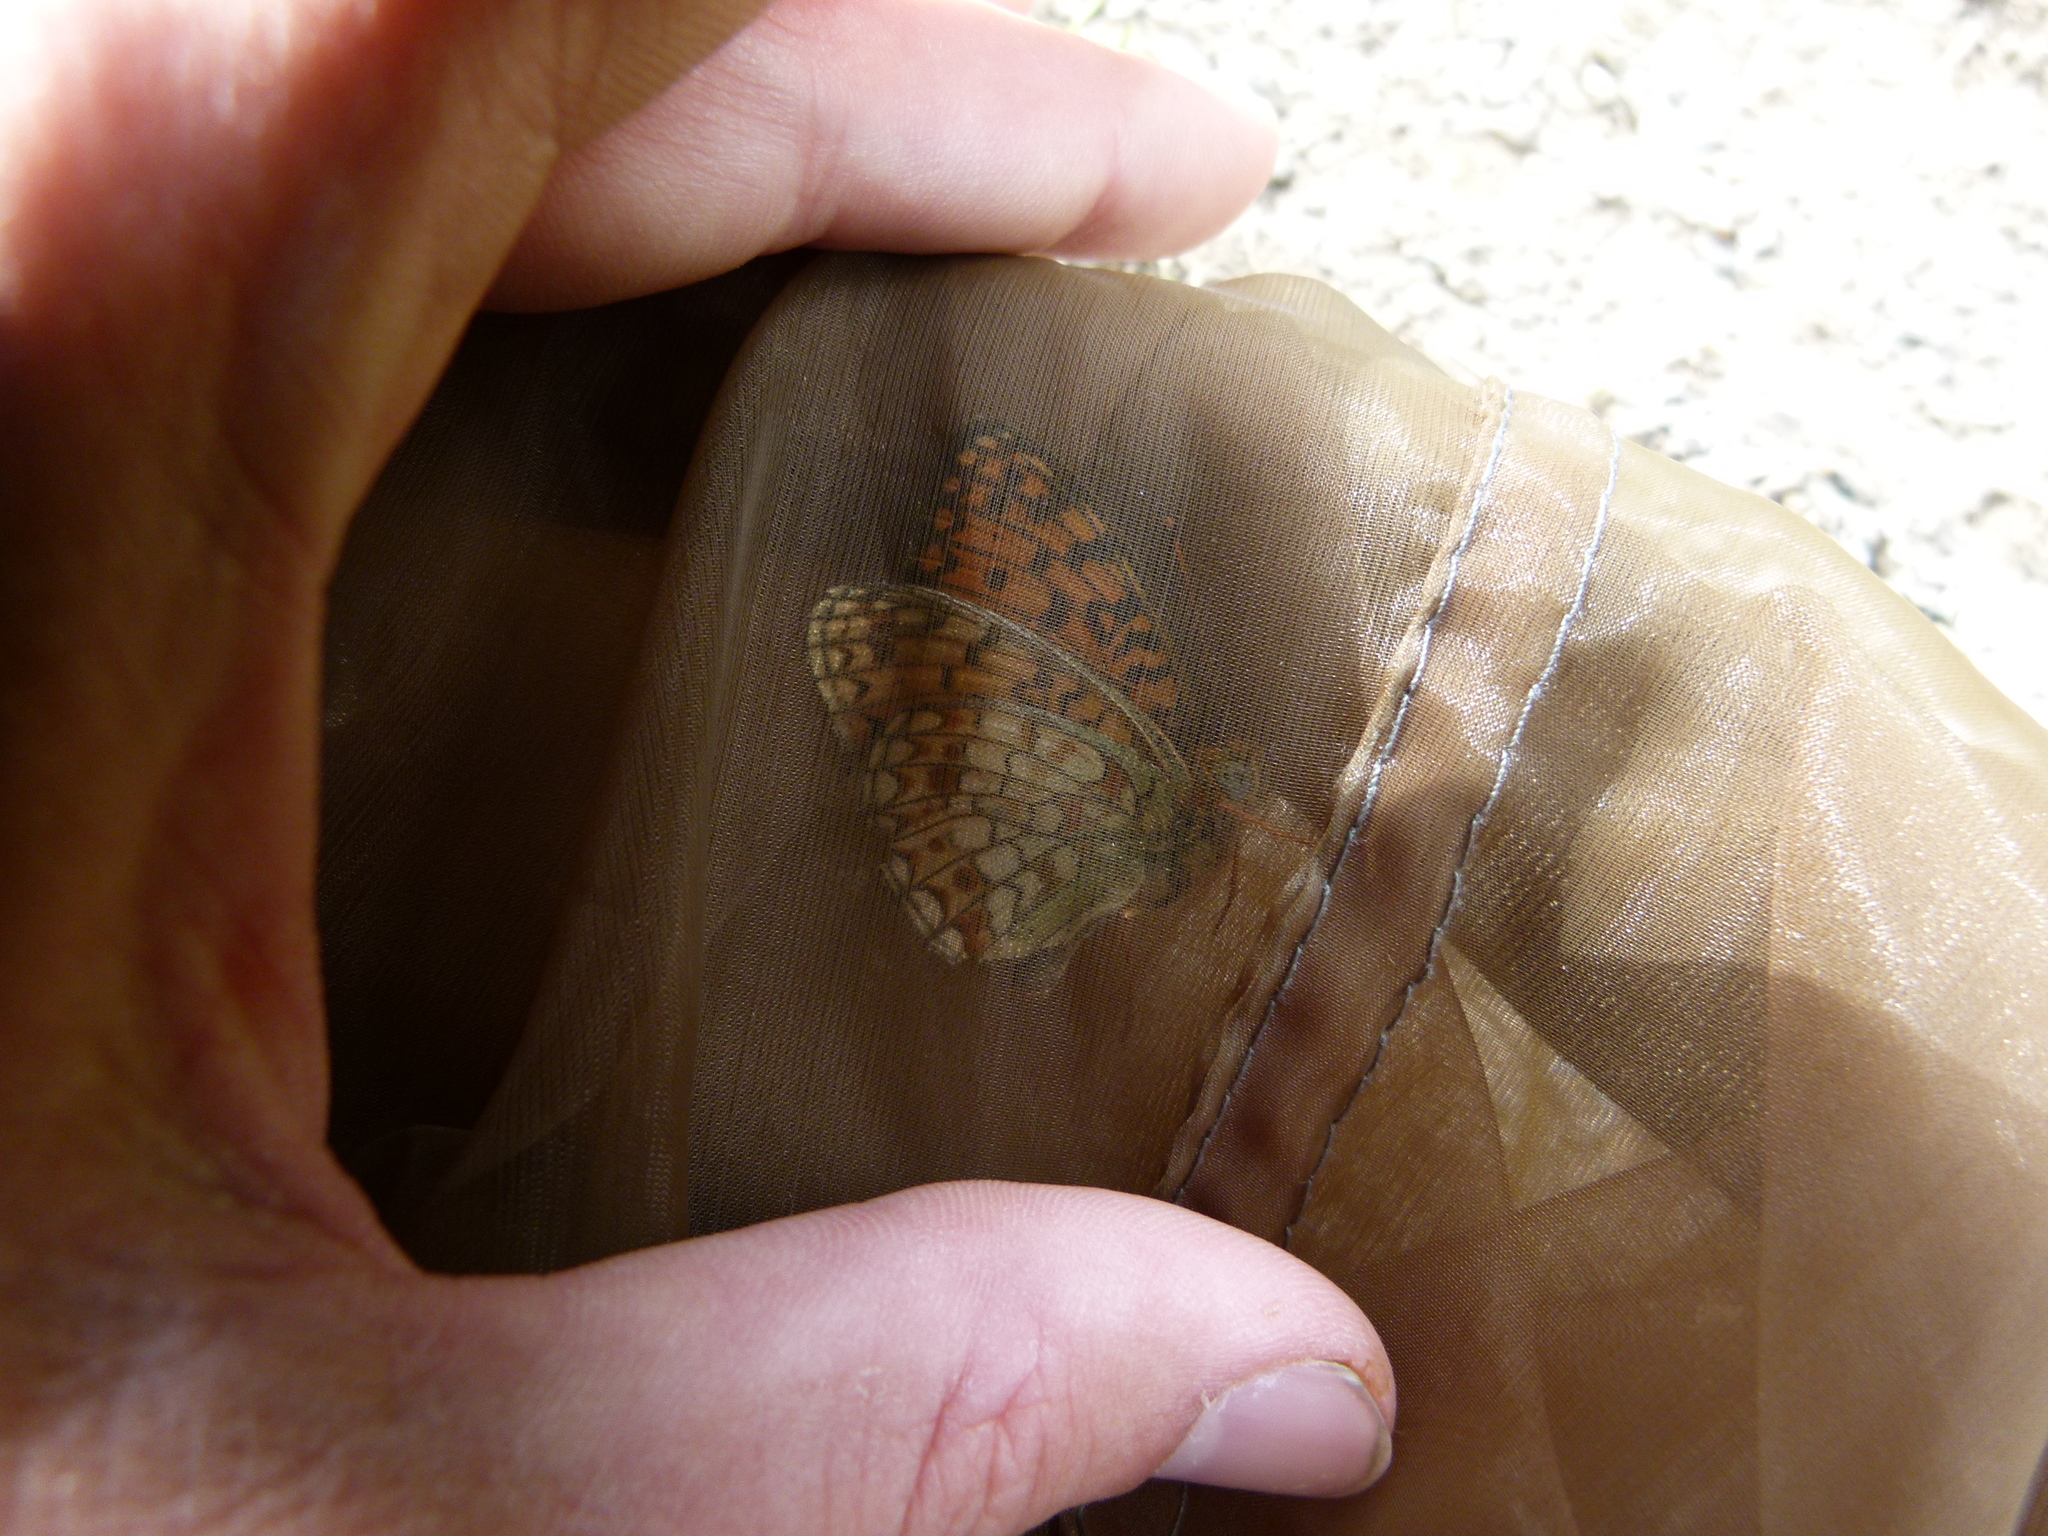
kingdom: Animalia
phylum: Arthropoda
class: Insecta
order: Lepidoptera
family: Nymphalidae
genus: Fabriciana
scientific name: Fabriciana niobe
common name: Niobe fritillary
